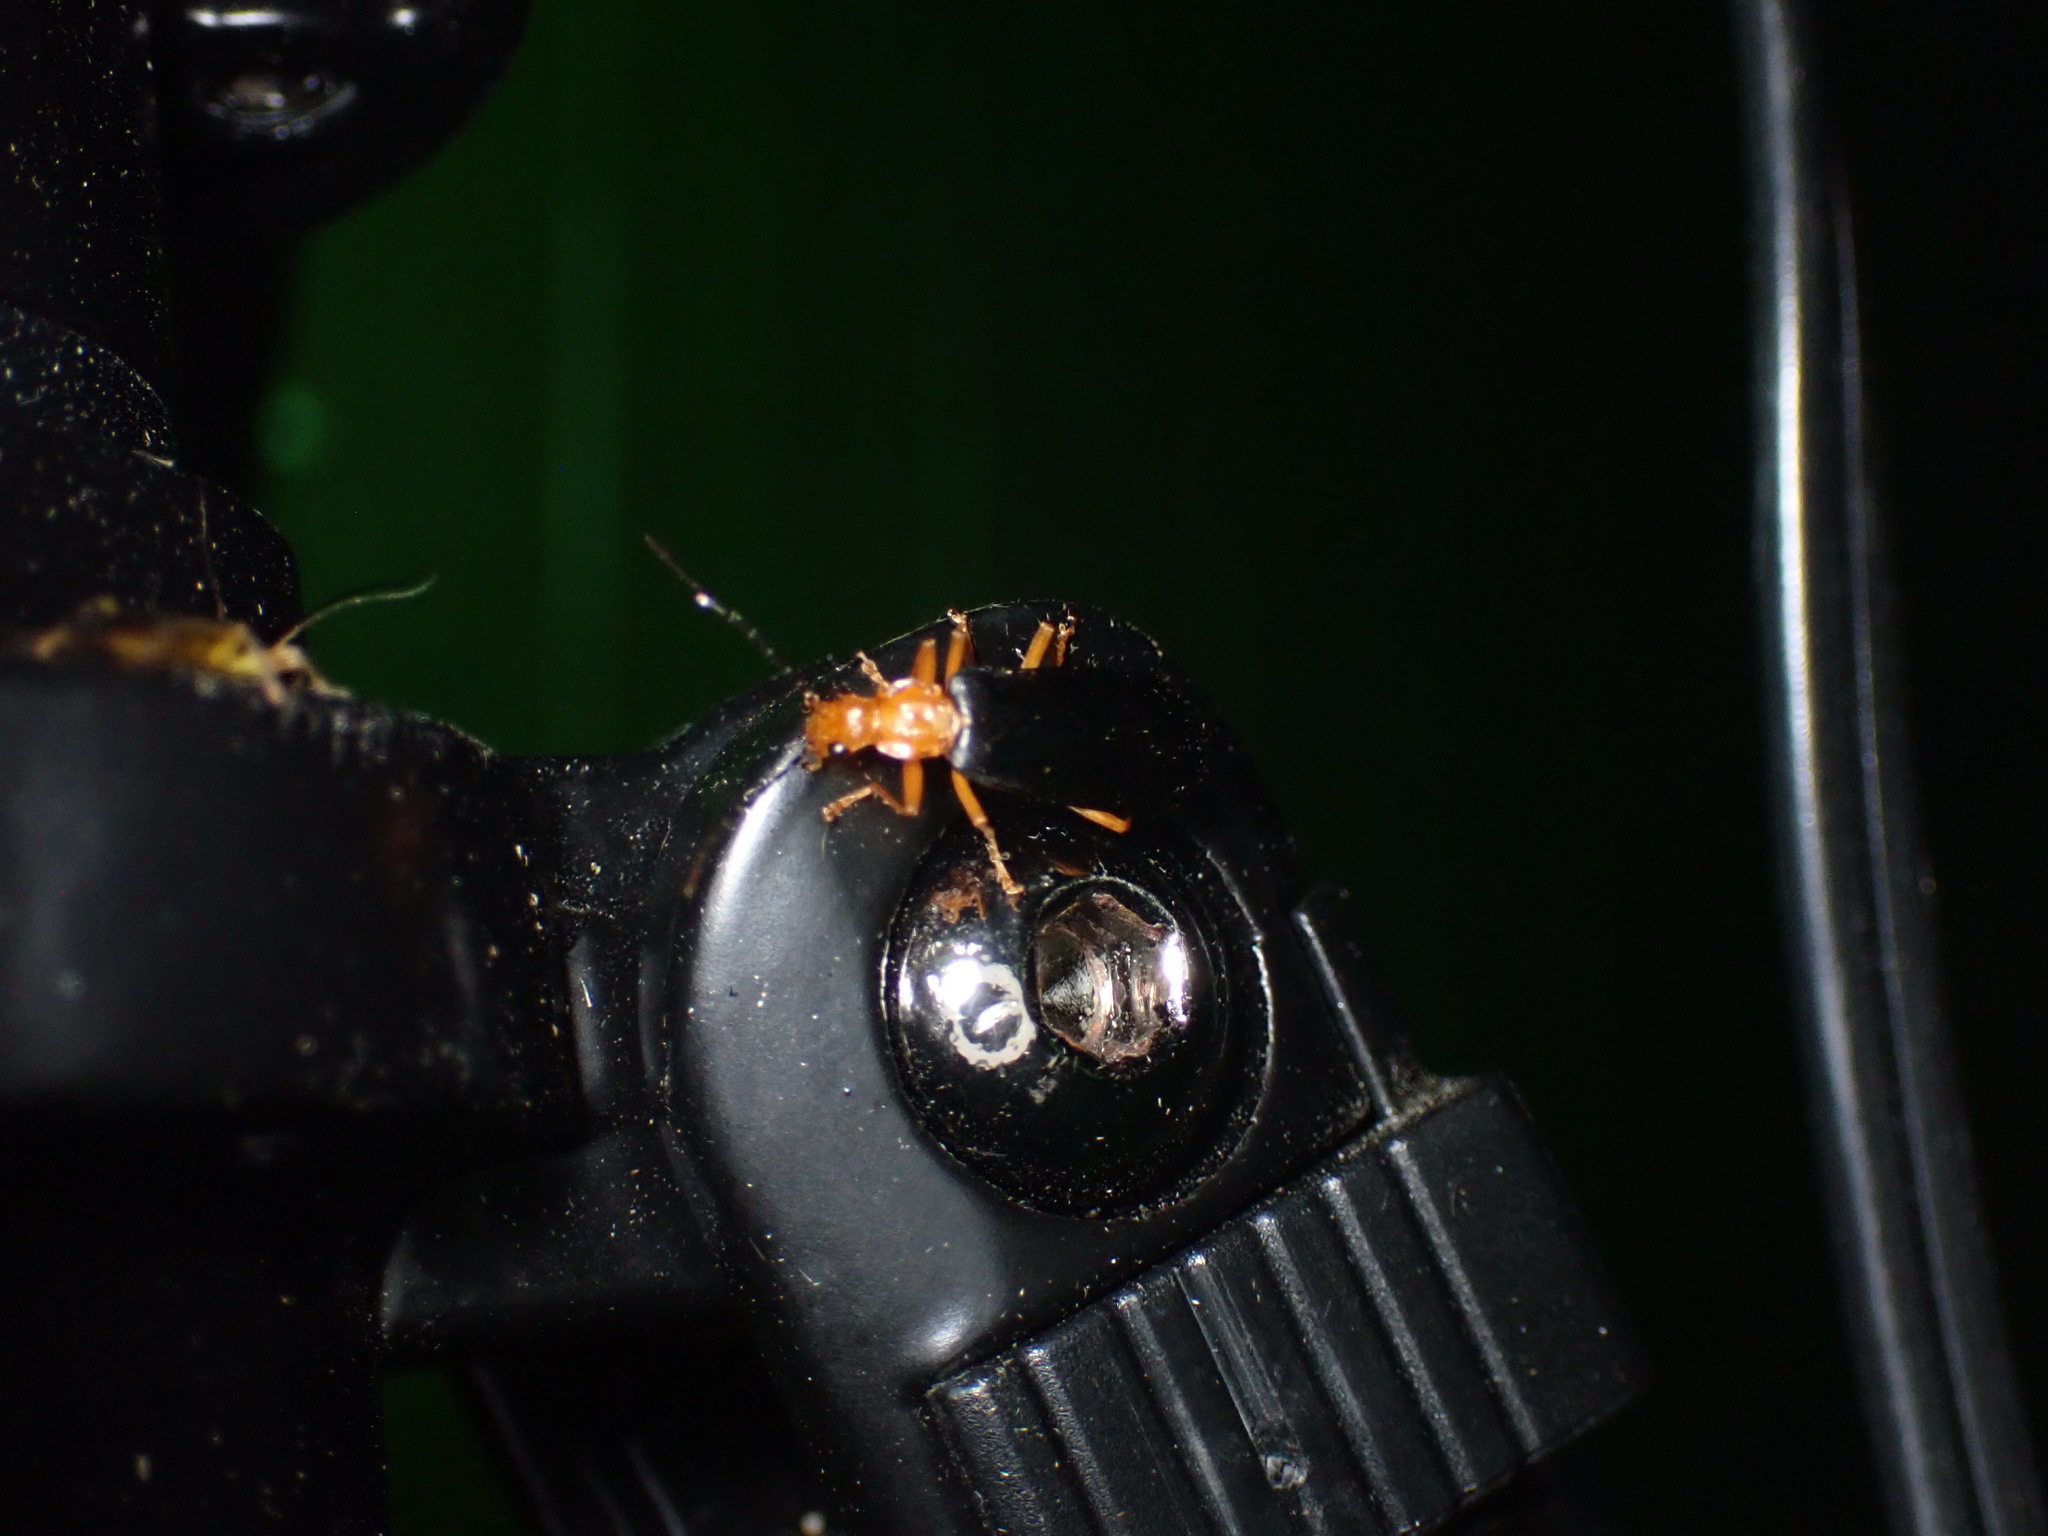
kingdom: Animalia
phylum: Arthropoda
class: Insecta
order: Coleoptera
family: Cantharidae
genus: Podabrus
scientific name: Podabrus fayi
